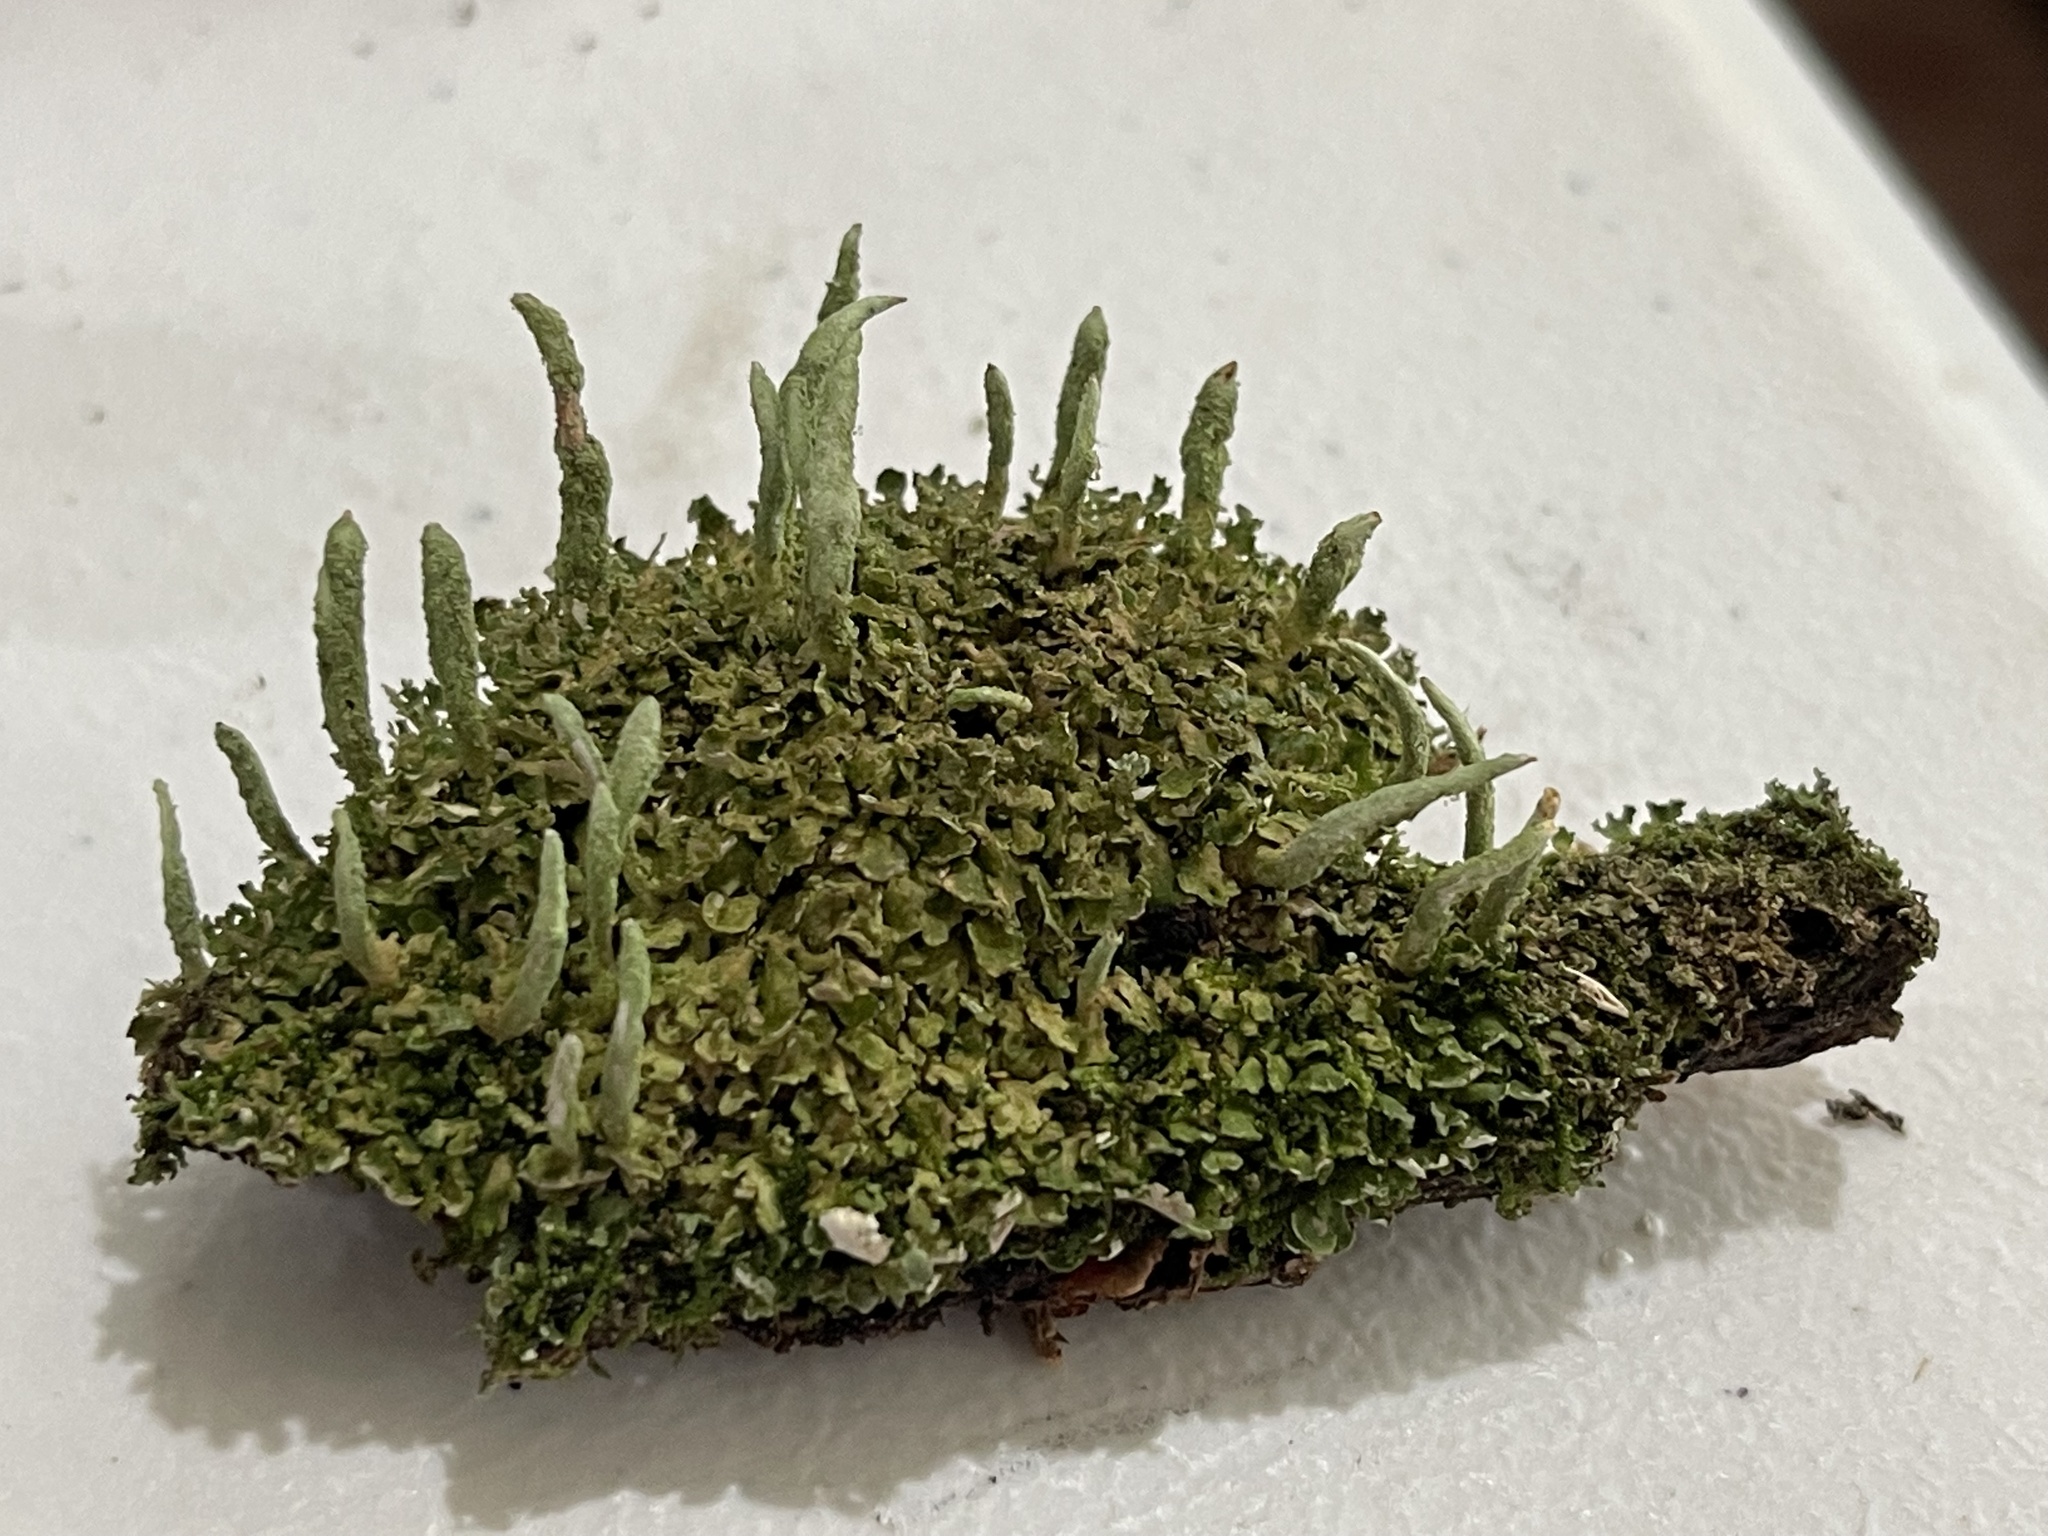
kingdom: Fungi
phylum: Ascomycota
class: Lecanoromycetes
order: Lecanorales
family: Cladoniaceae
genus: Cladonia
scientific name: Cladonia coniocraea
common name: Common powderhorn
